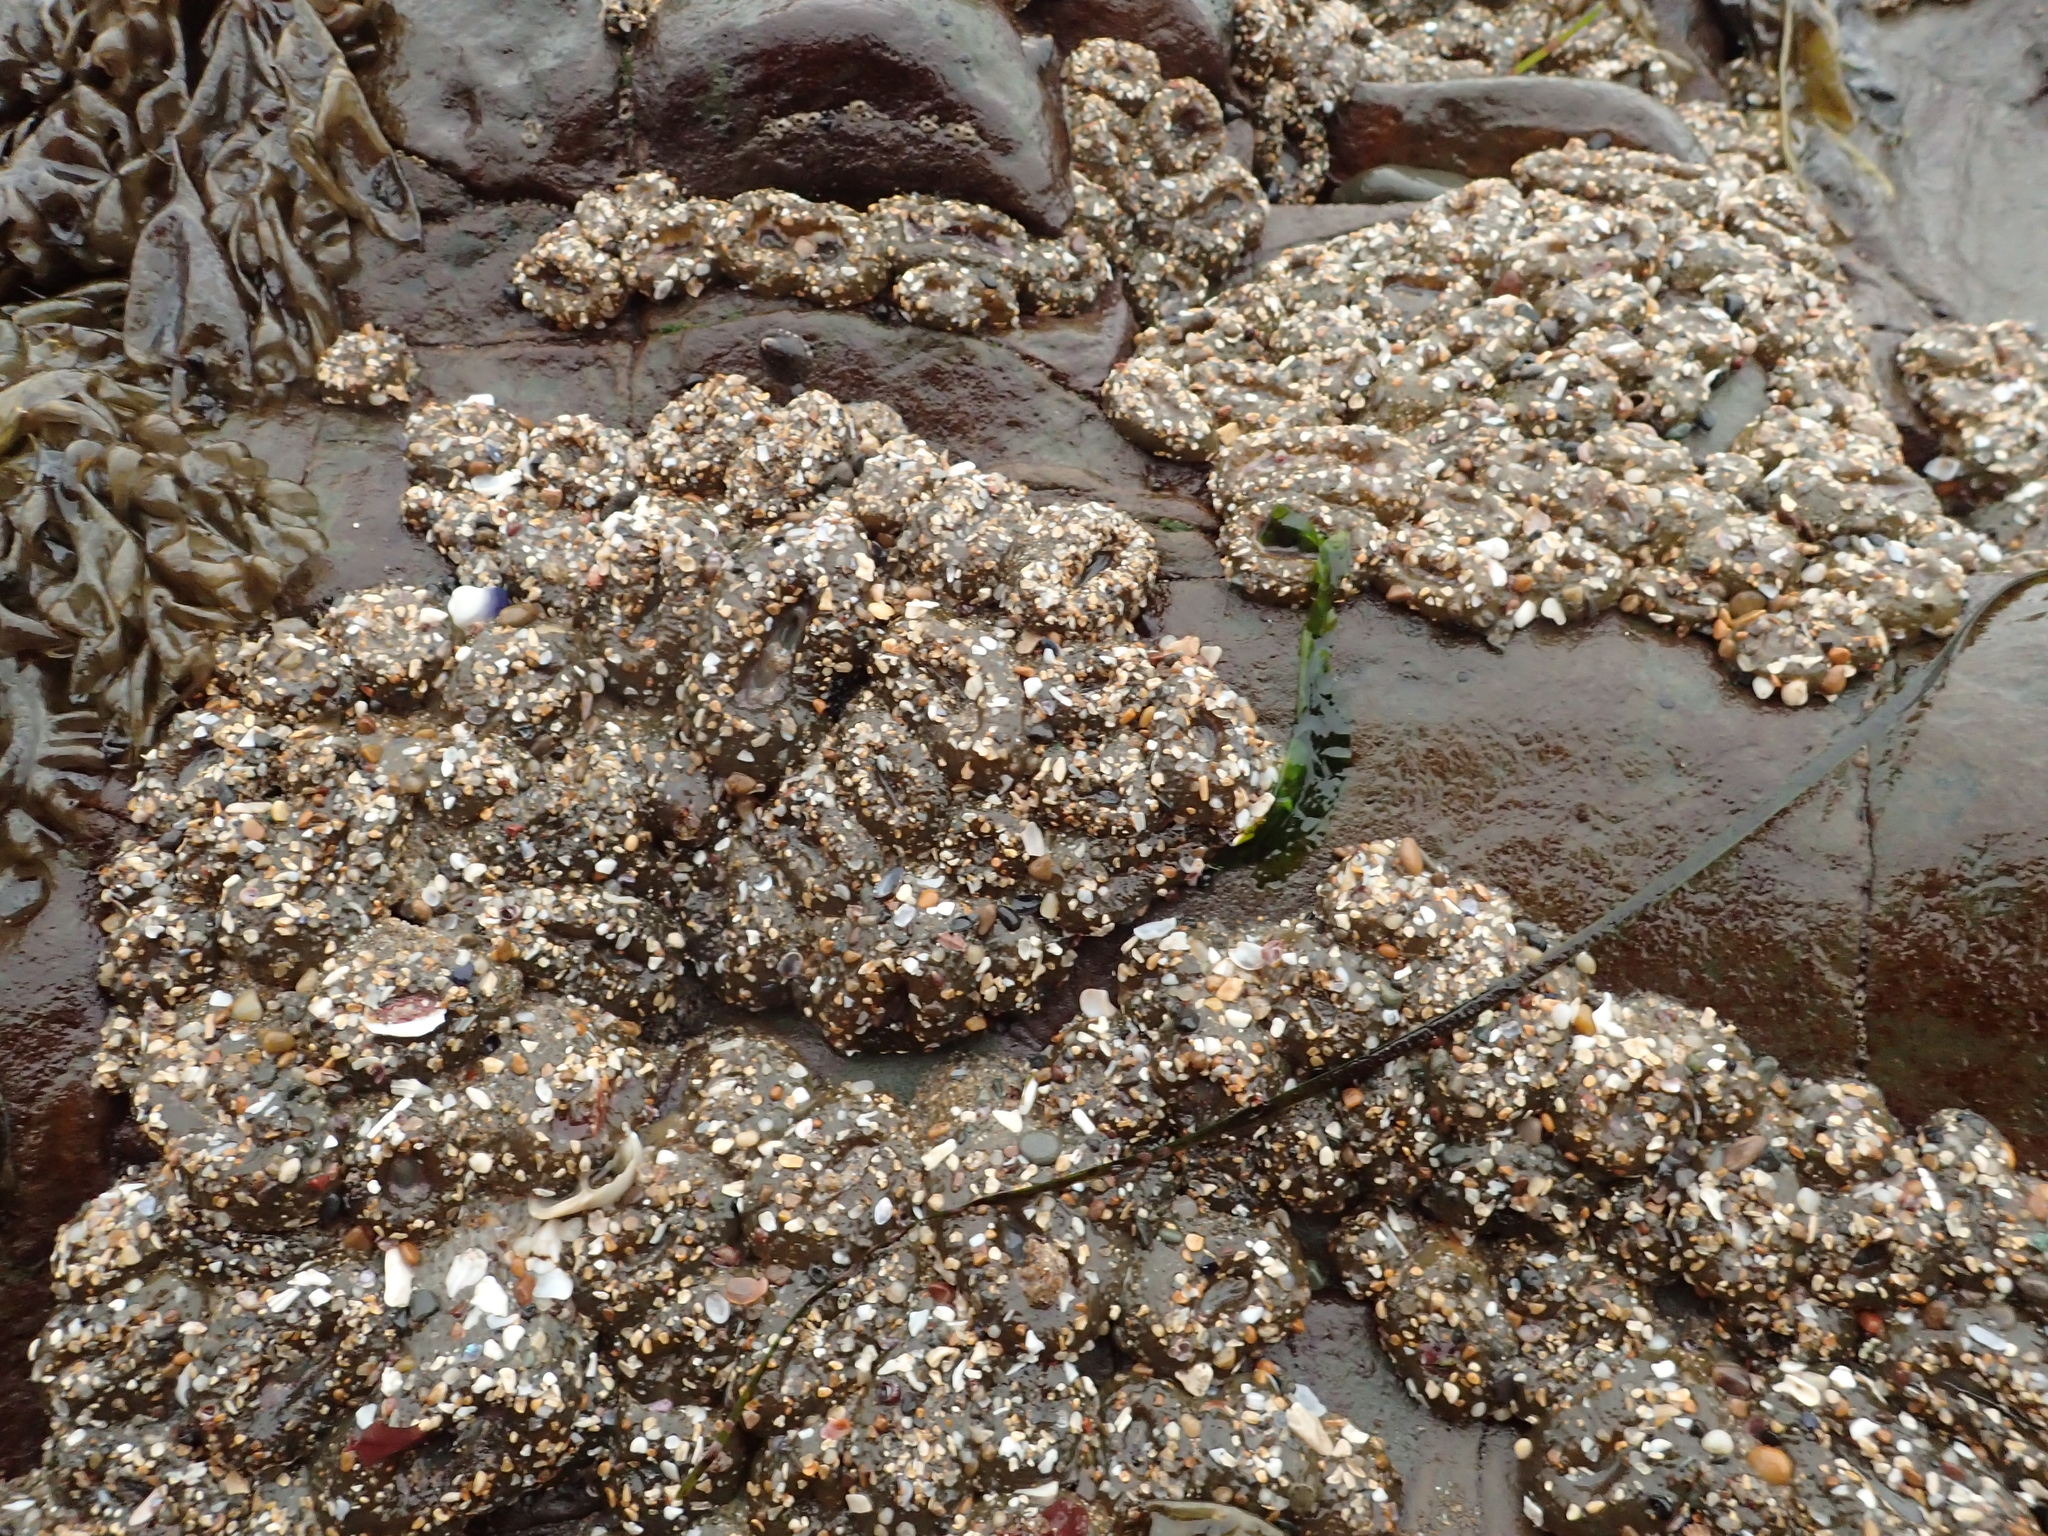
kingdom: Animalia
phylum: Cnidaria
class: Anthozoa
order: Actiniaria
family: Actiniidae
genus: Anthopleura
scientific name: Anthopleura elegantissima
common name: Clonal anemone
